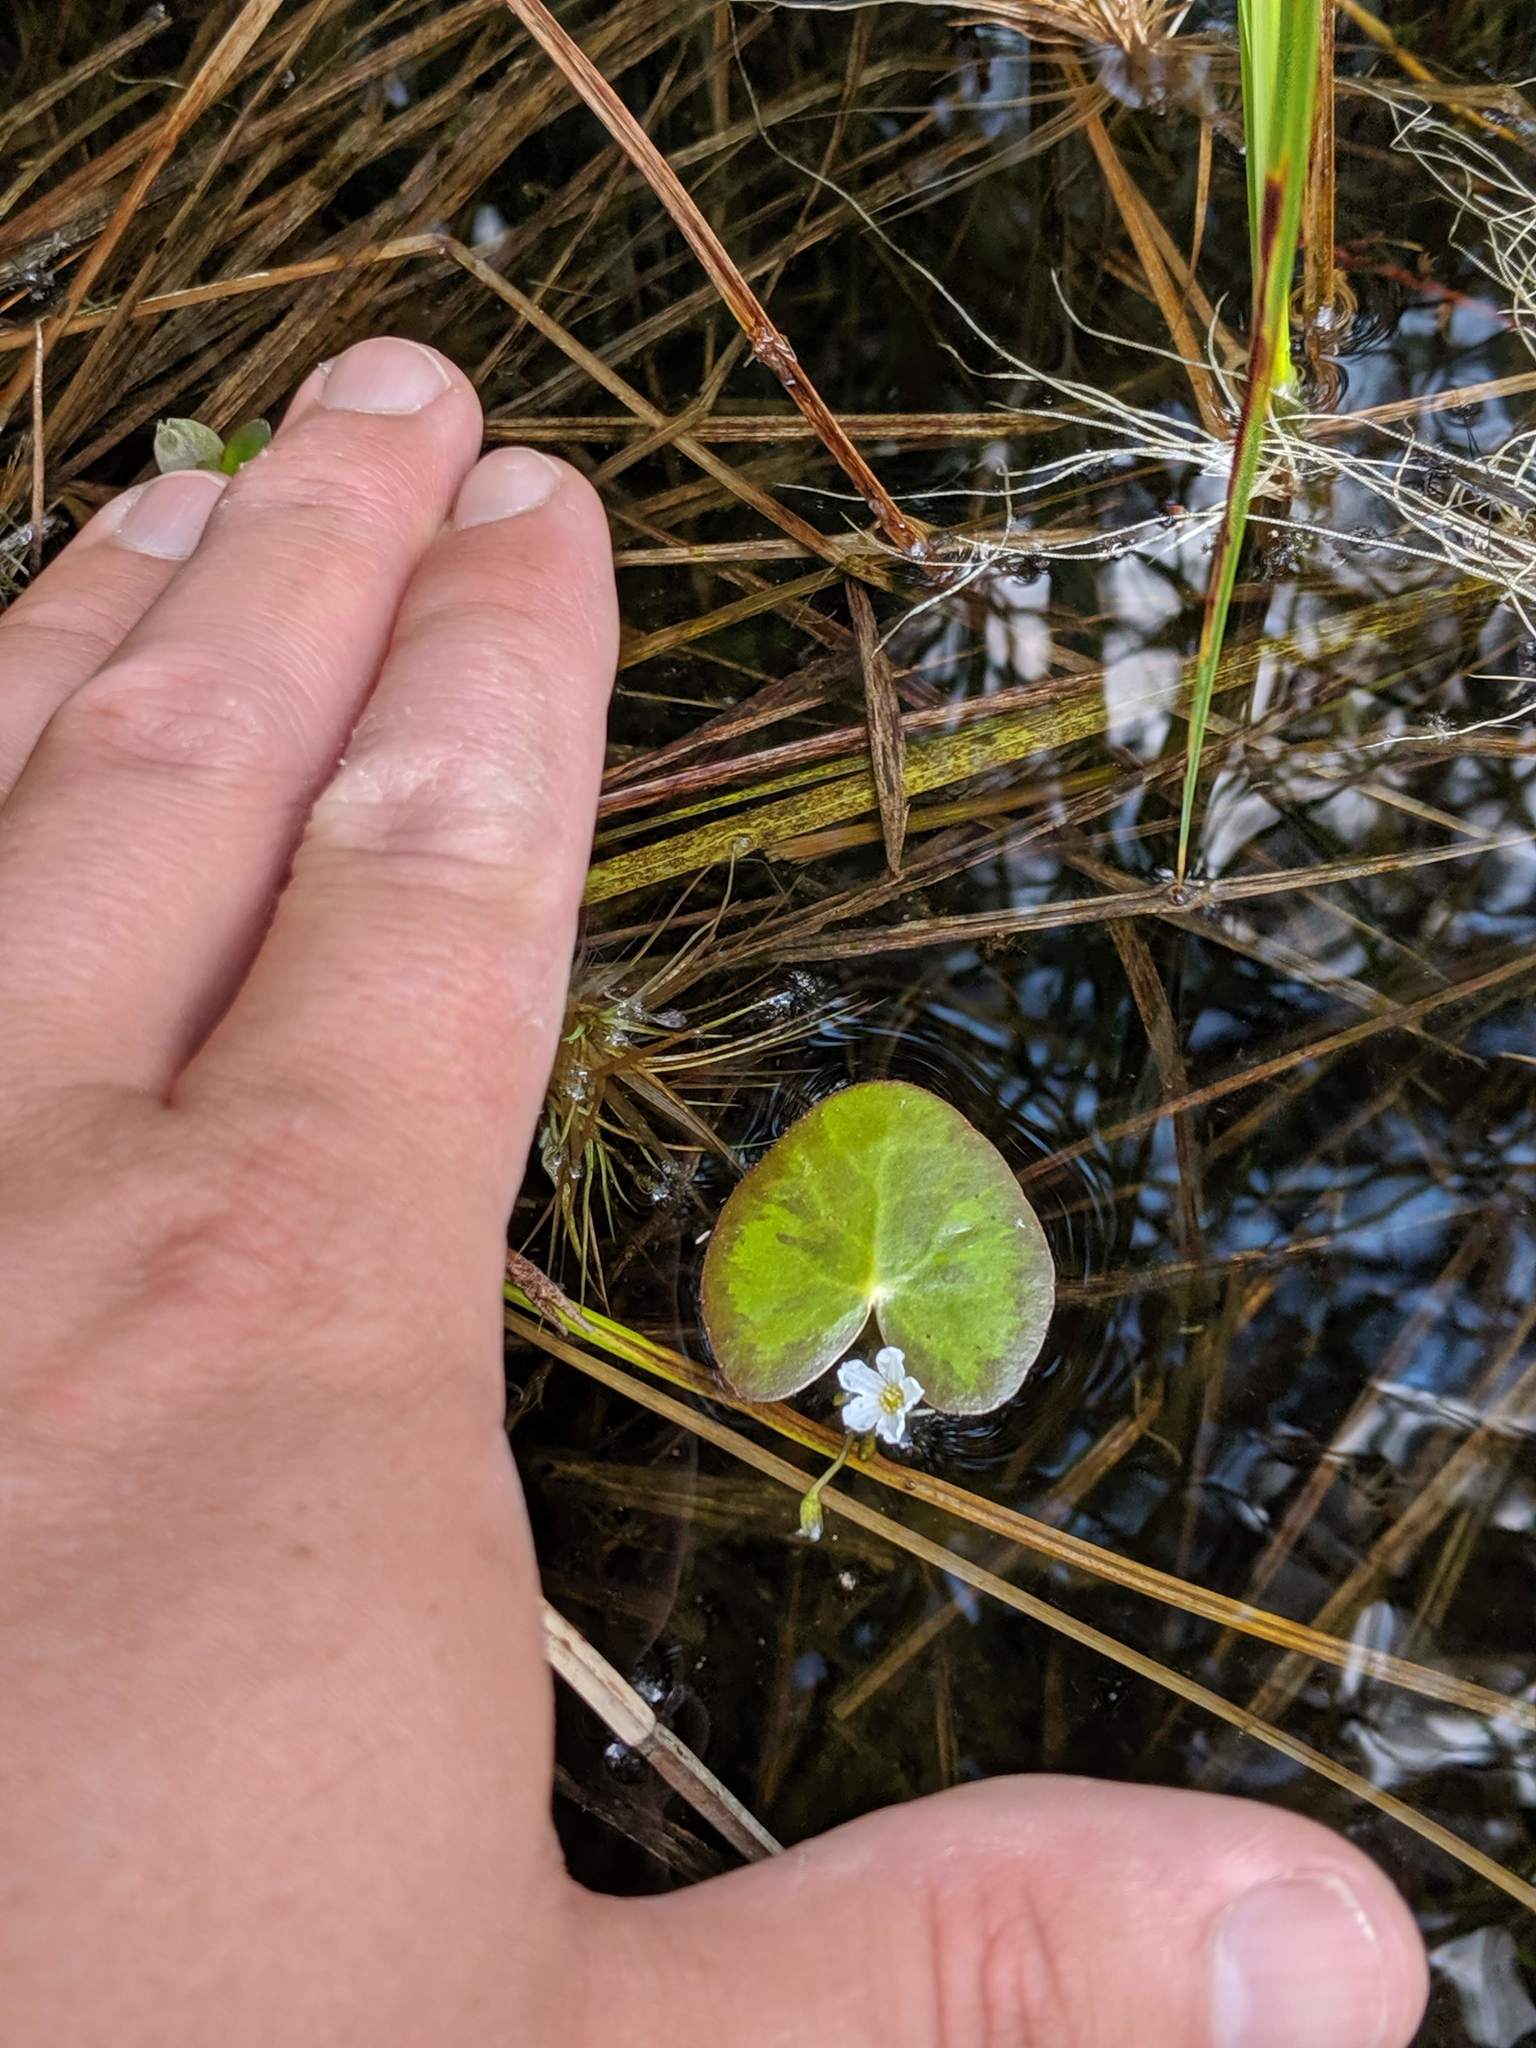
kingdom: Plantae
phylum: Tracheophyta
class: Magnoliopsida
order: Asterales
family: Menyanthaceae
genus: Nymphoides
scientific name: Nymphoides cordata
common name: Eight-angled floatingheart
